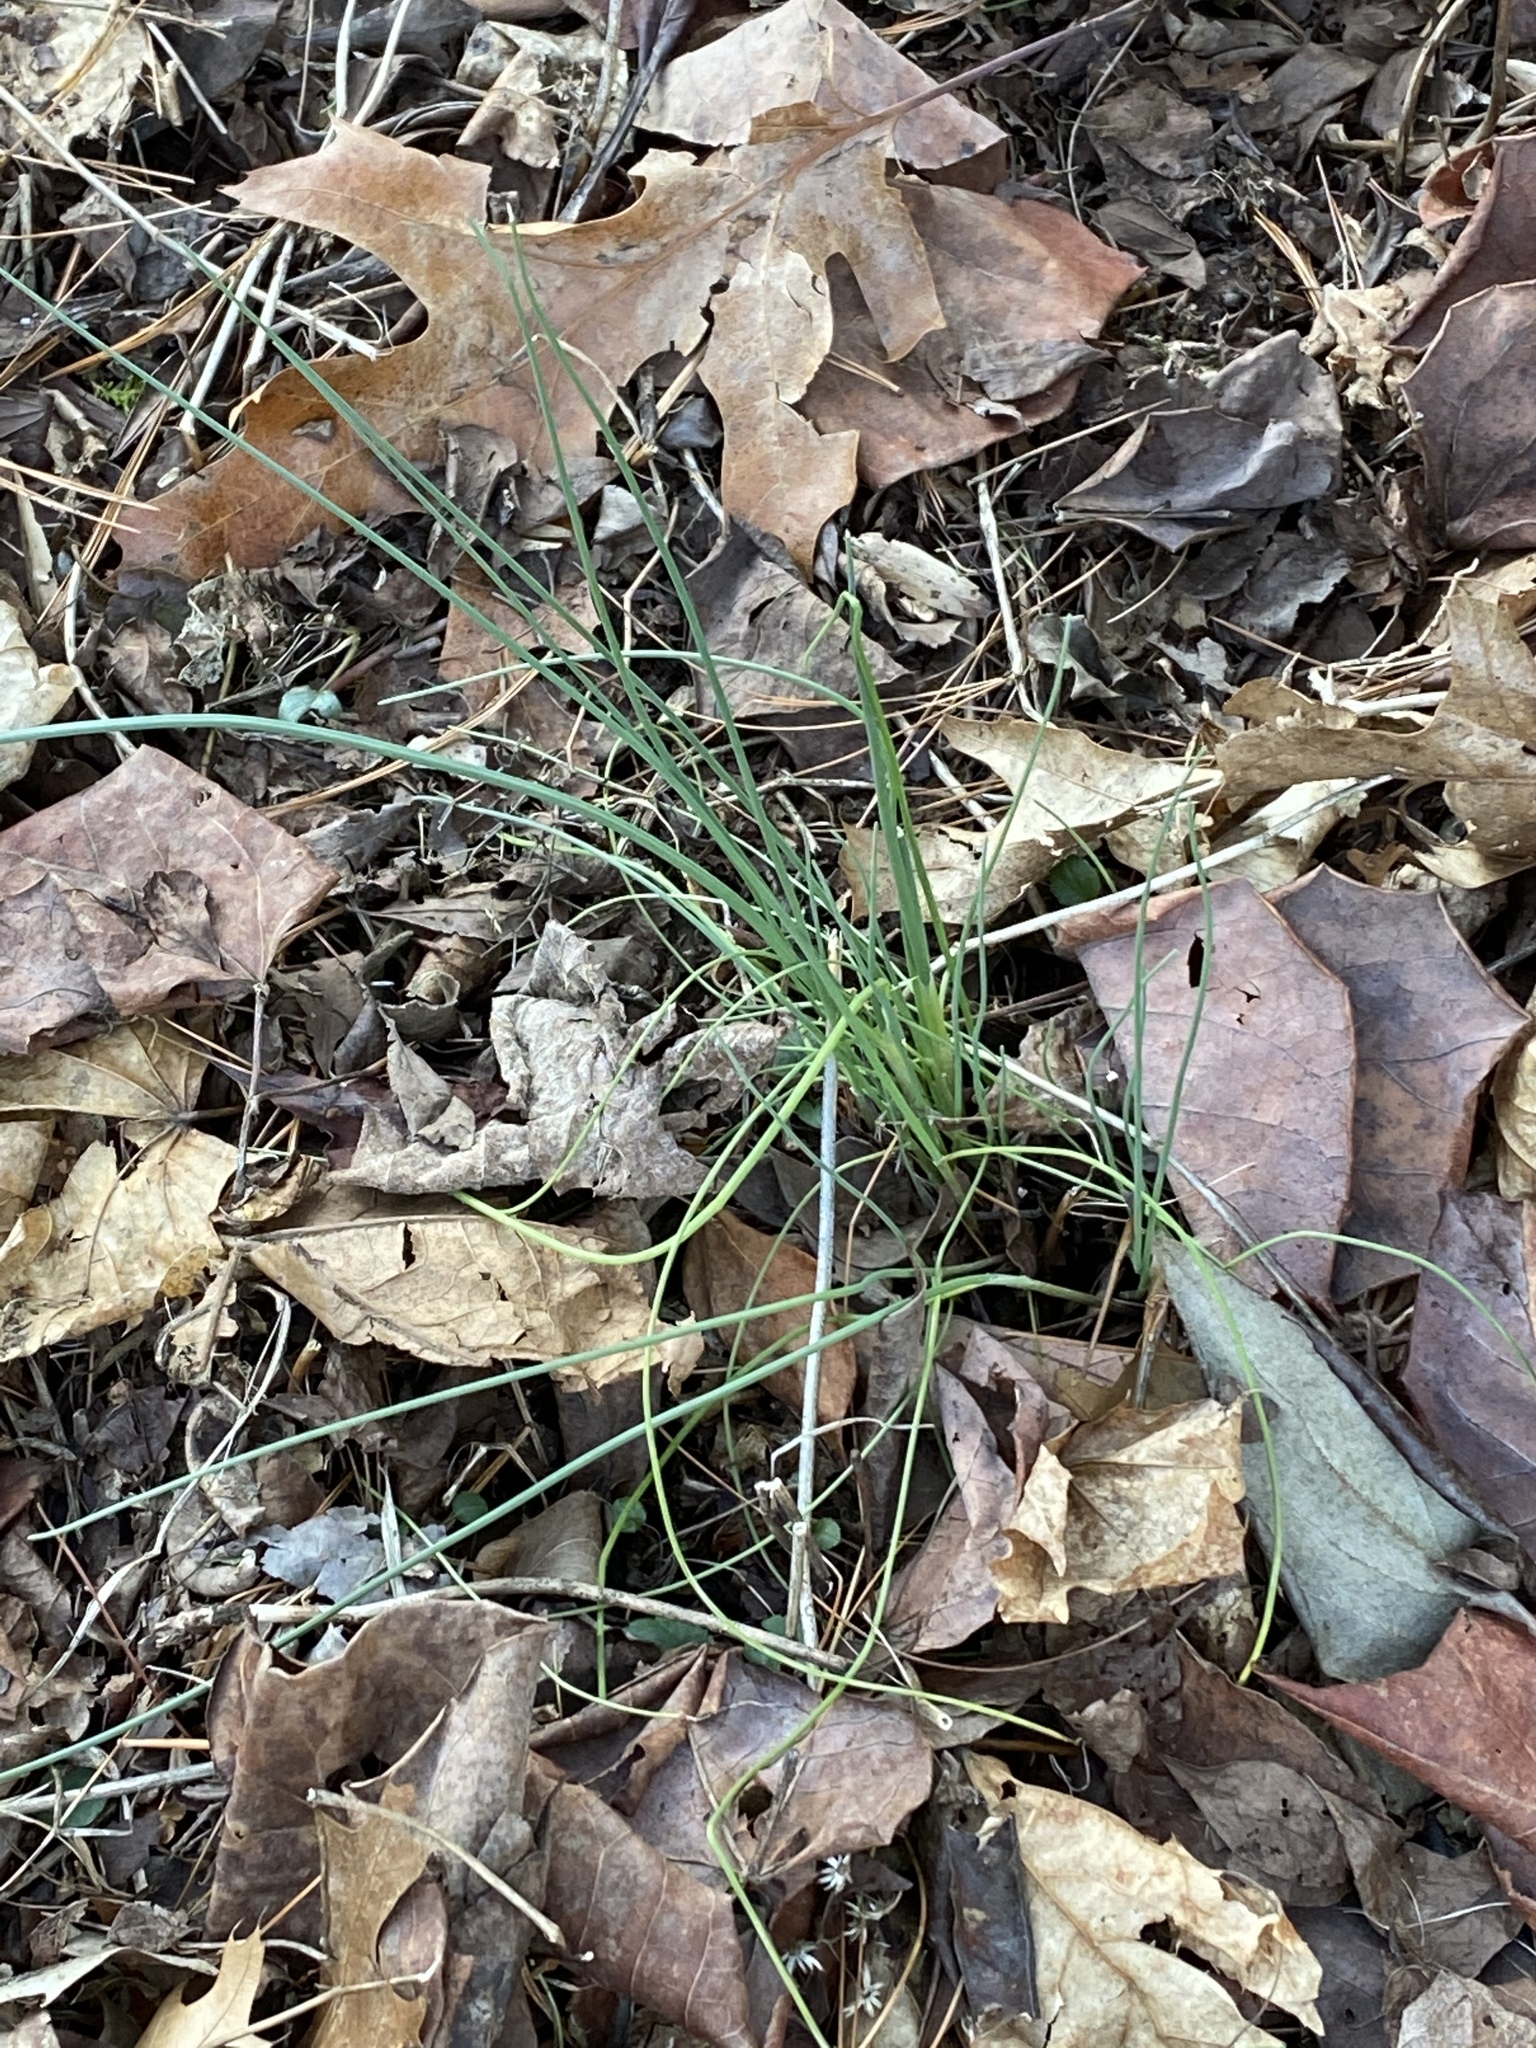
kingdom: Plantae
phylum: Tracheophyta
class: Liliopsida
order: Asparagales
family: Amaryllidaceae
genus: Allium
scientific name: Allium vineale
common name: Crow garlic
